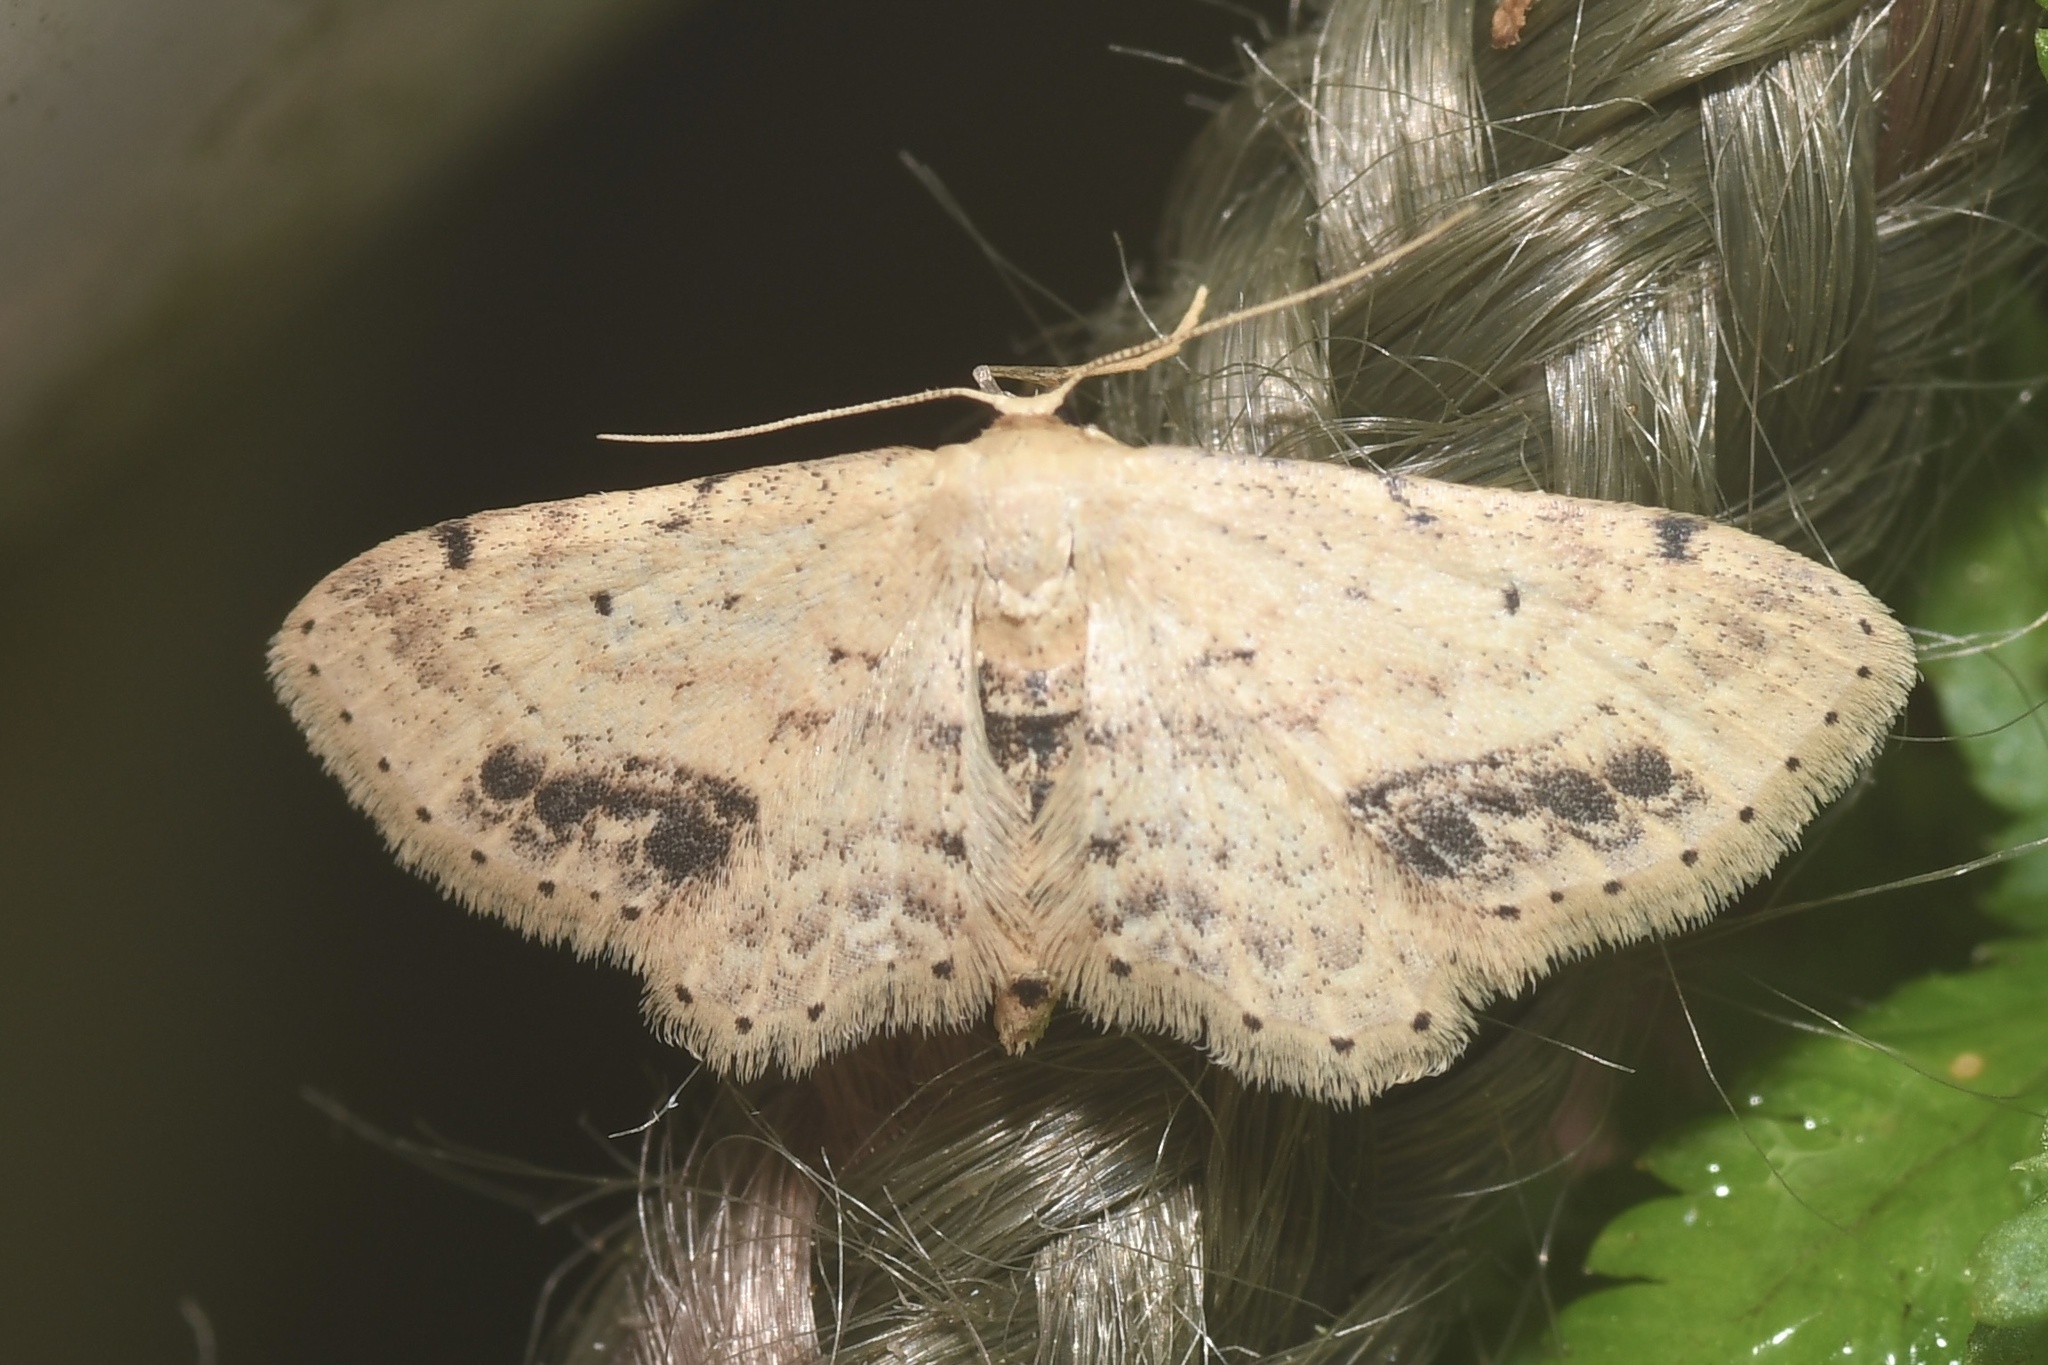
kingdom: Animalia
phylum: Arthropoda
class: Insecta
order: Lepidoptera
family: Geometridae
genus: Idaea
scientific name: Idaea dimidiata
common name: Single-dotted wave
